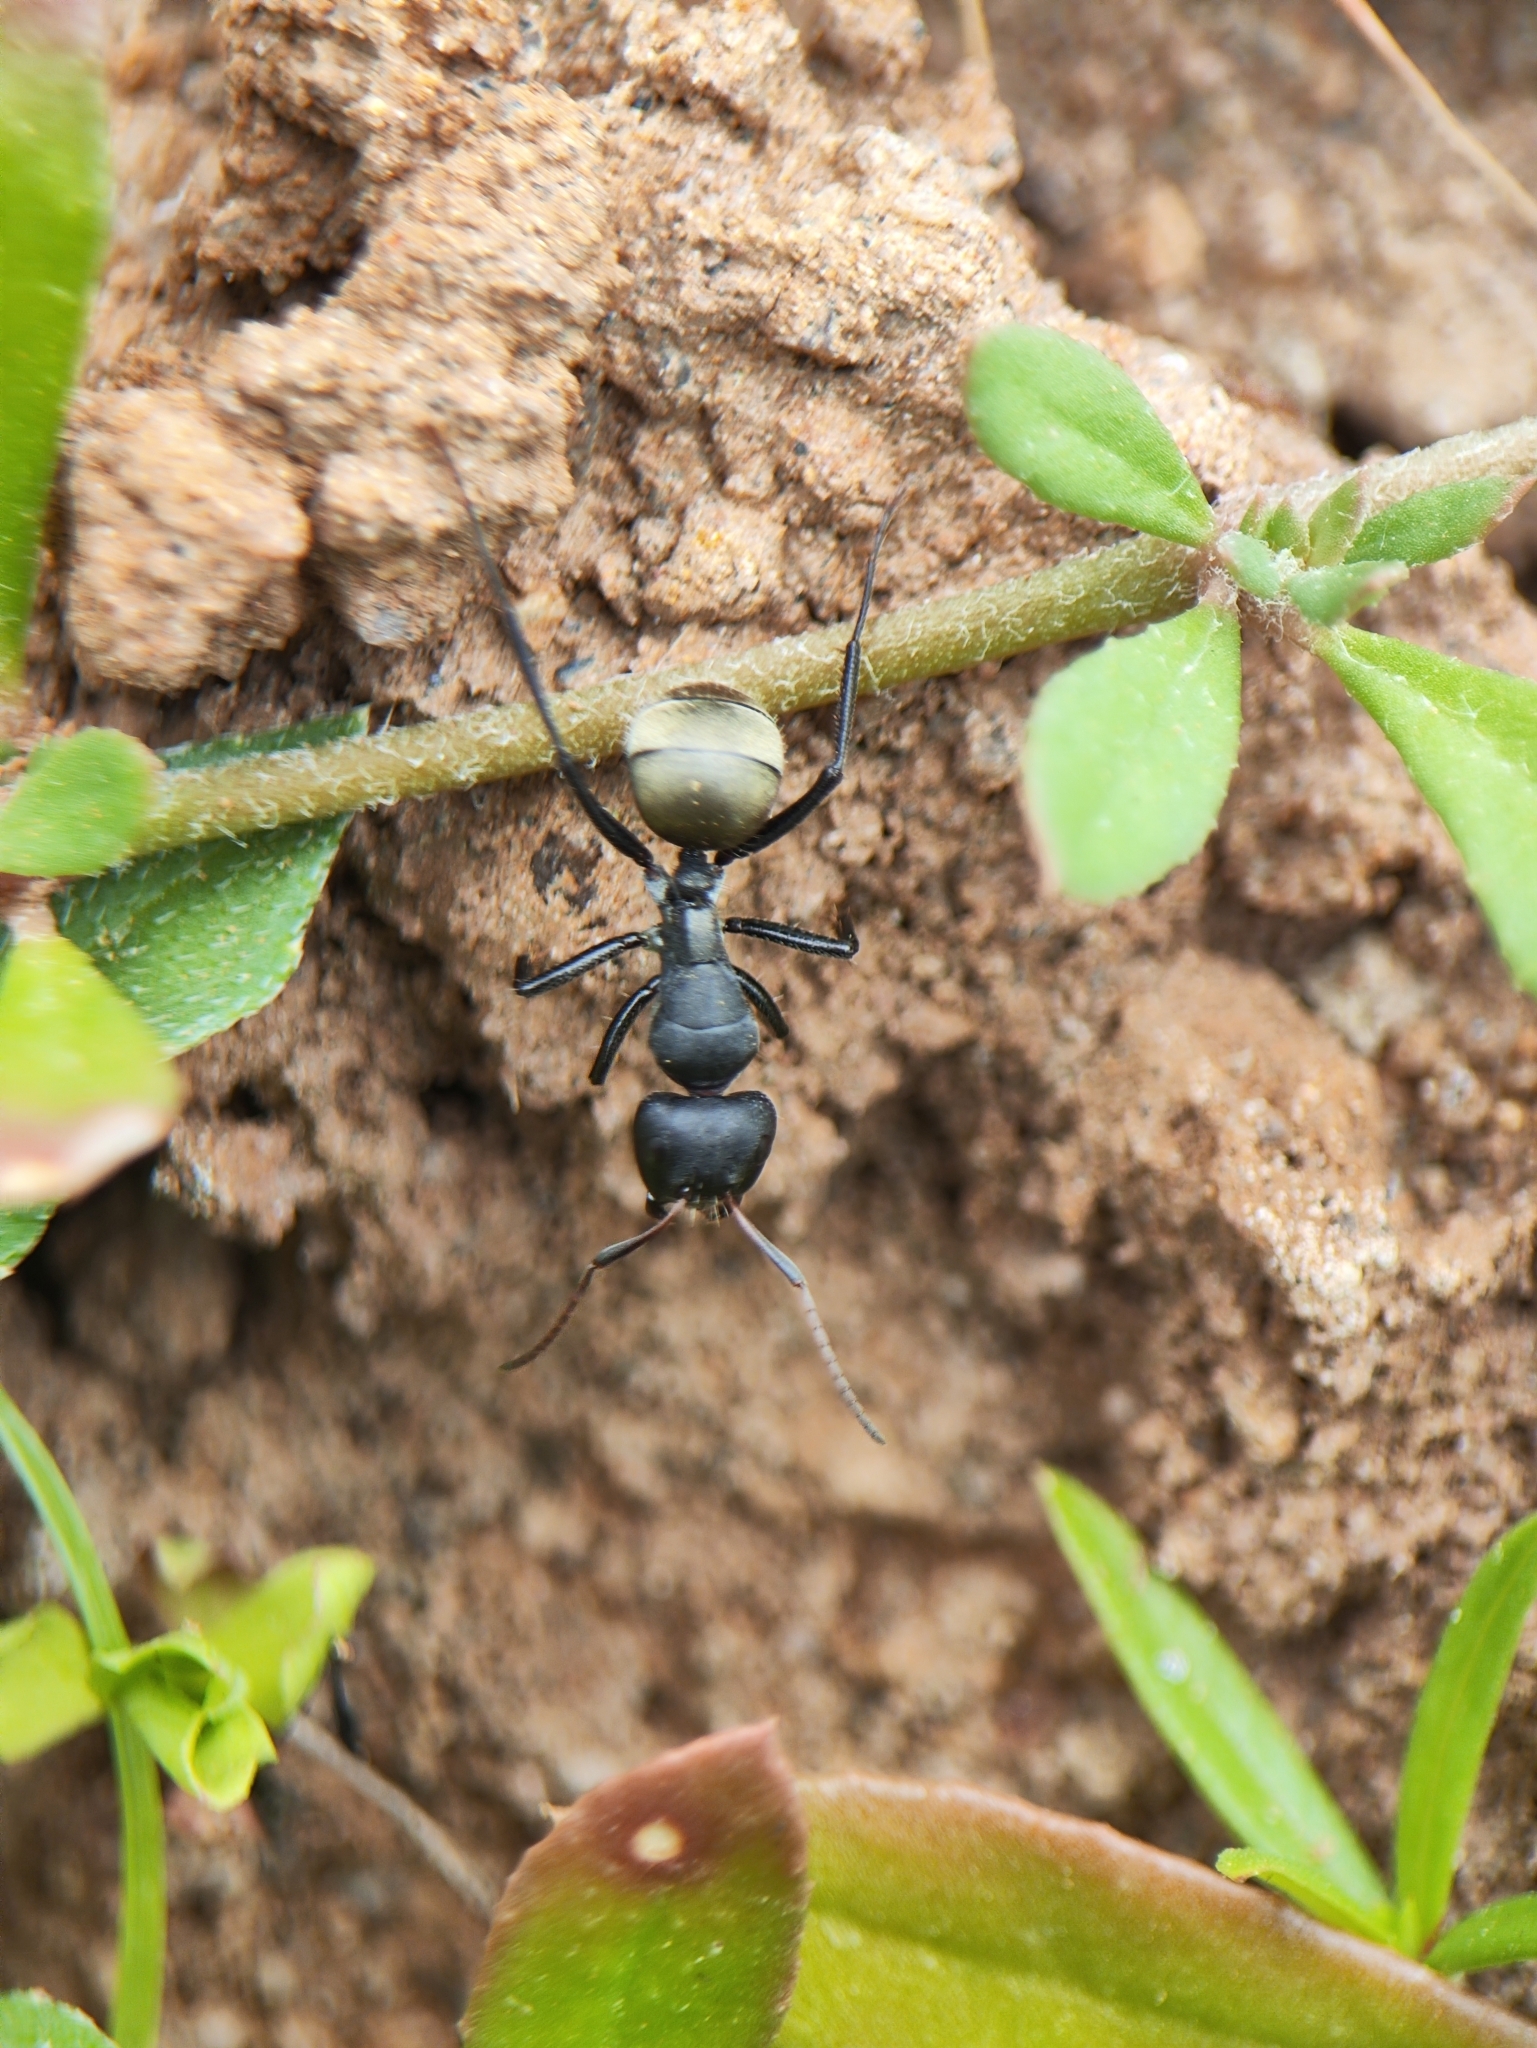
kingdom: Animalia
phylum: Arthropoda
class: Insecta
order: Hymenoptera
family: Formicidae
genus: Camponotus
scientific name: Camponotus sericeus
